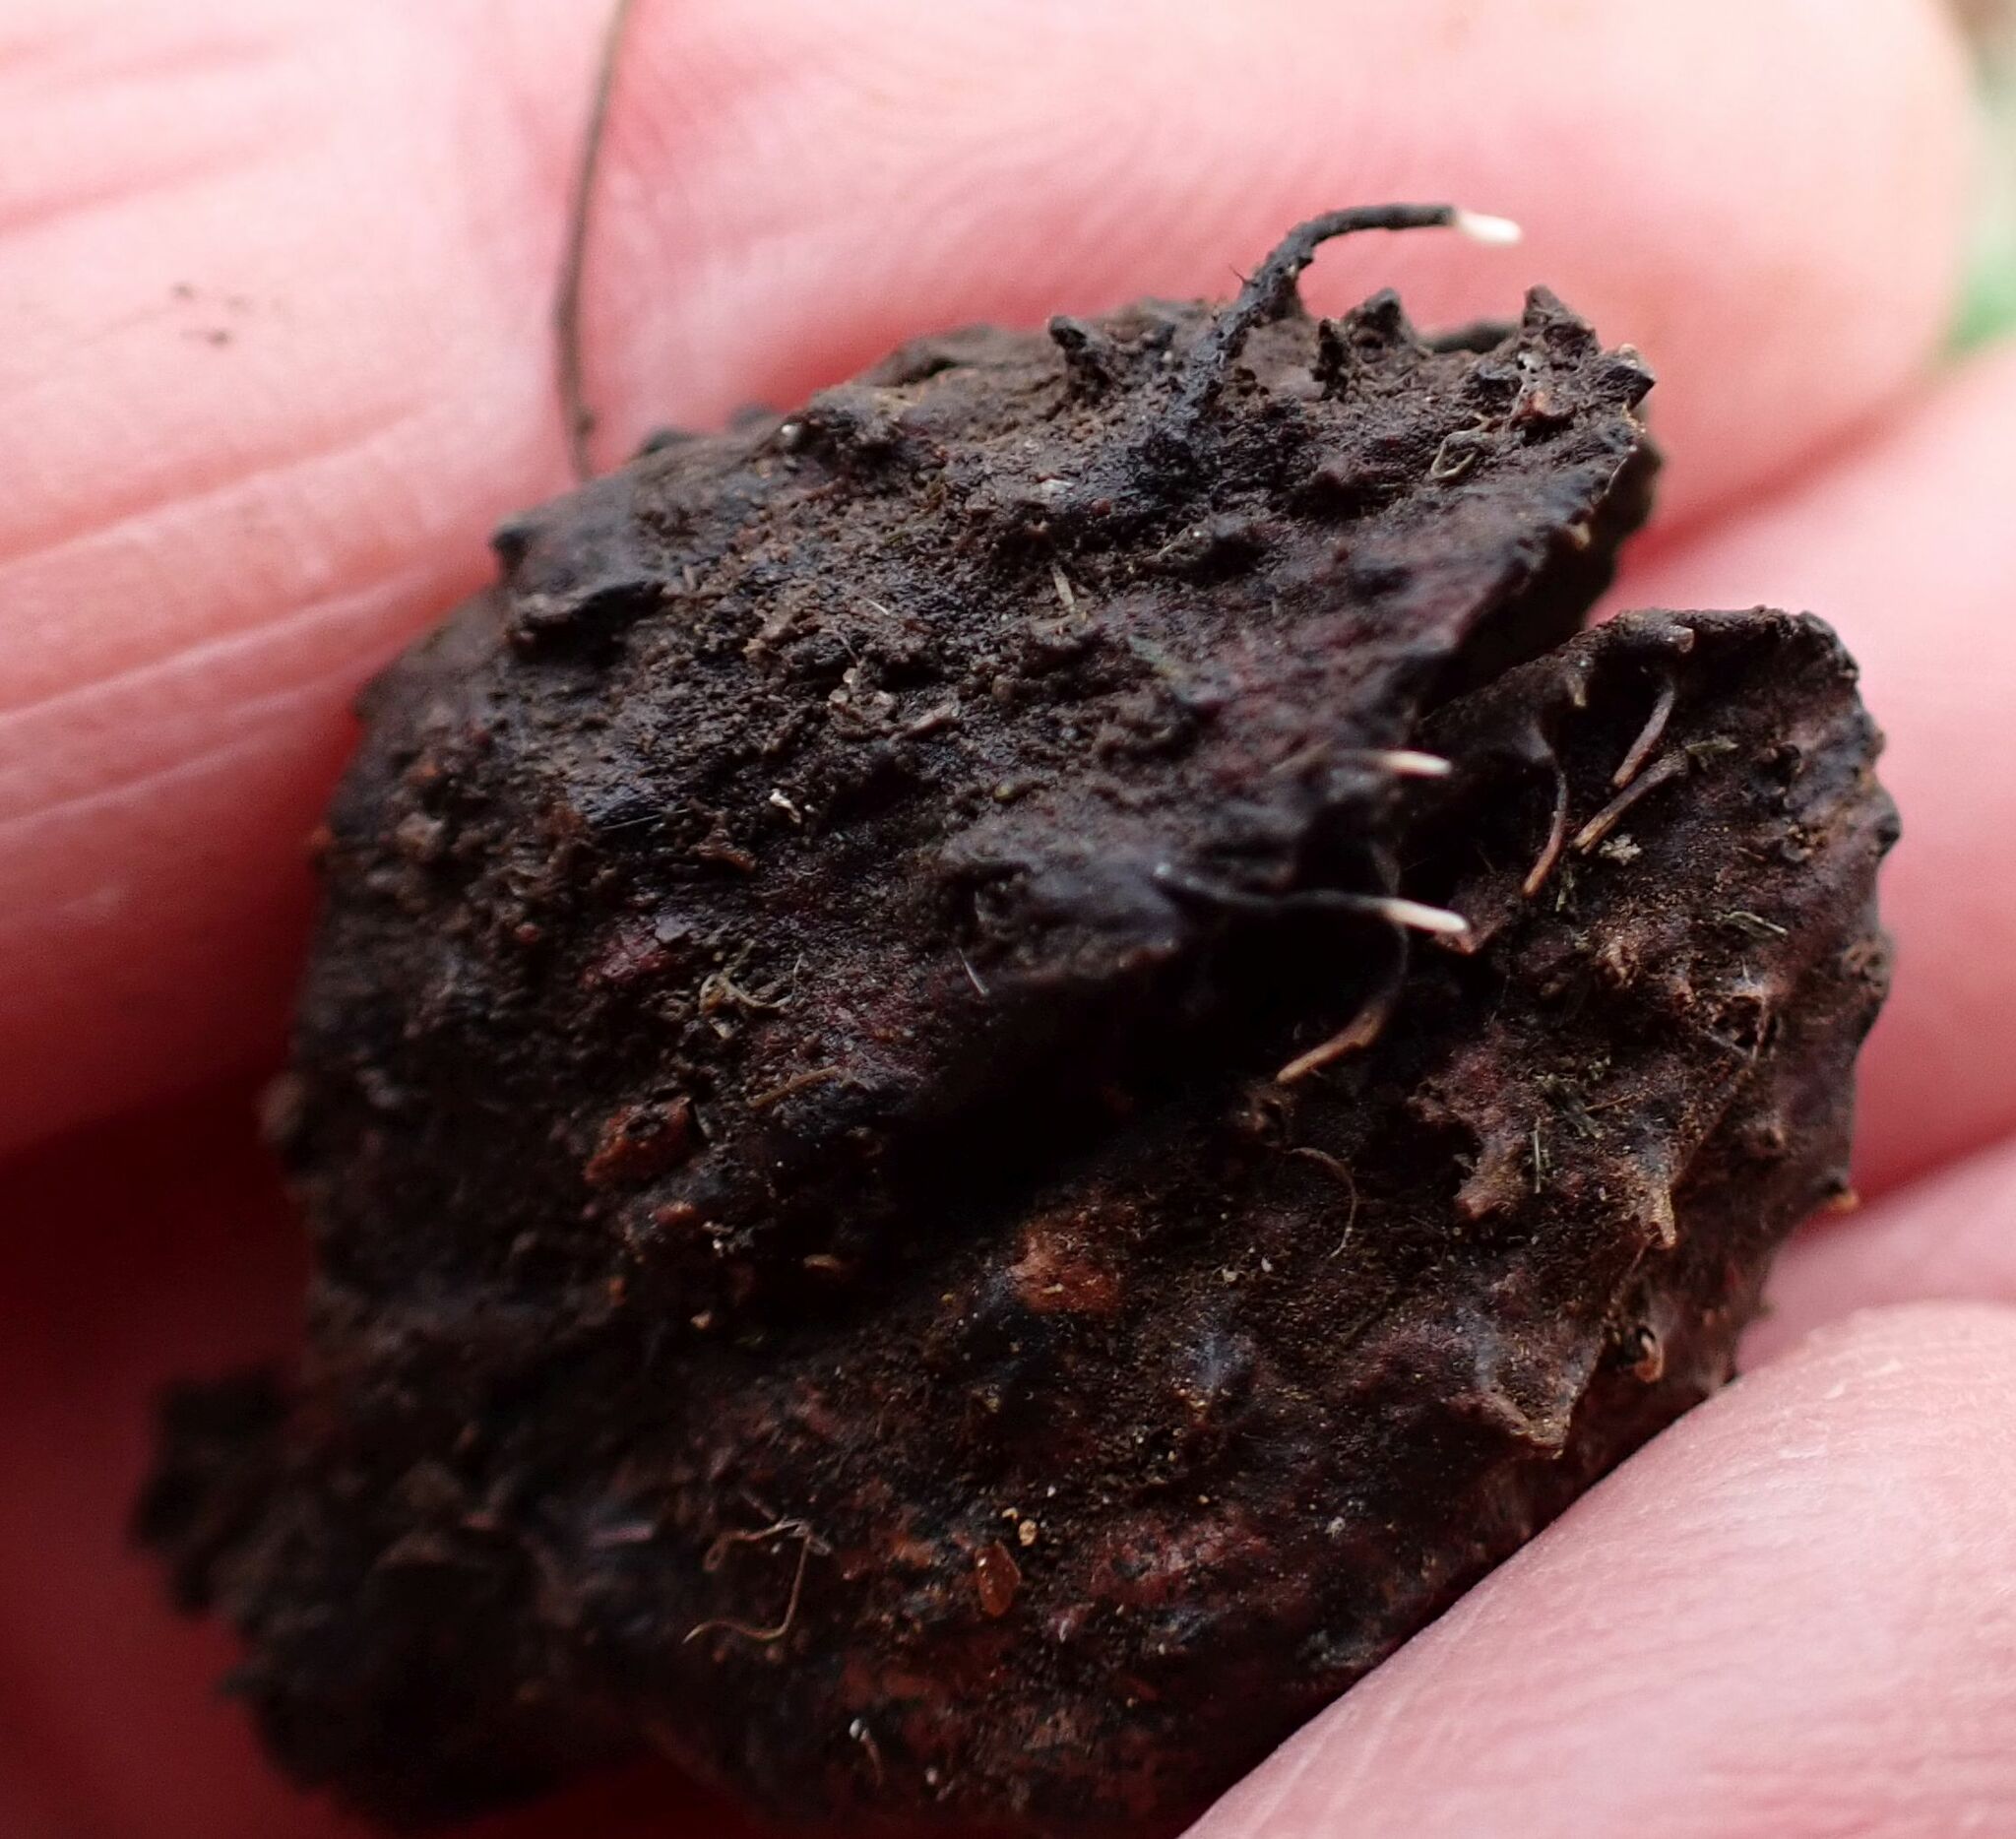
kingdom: Fungi
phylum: Ascomycota
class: Sordariomycetes
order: Xylariales
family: Xylariaceae
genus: Xylaria
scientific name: Xylaria carpophila
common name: Beechmast candlesnuff
